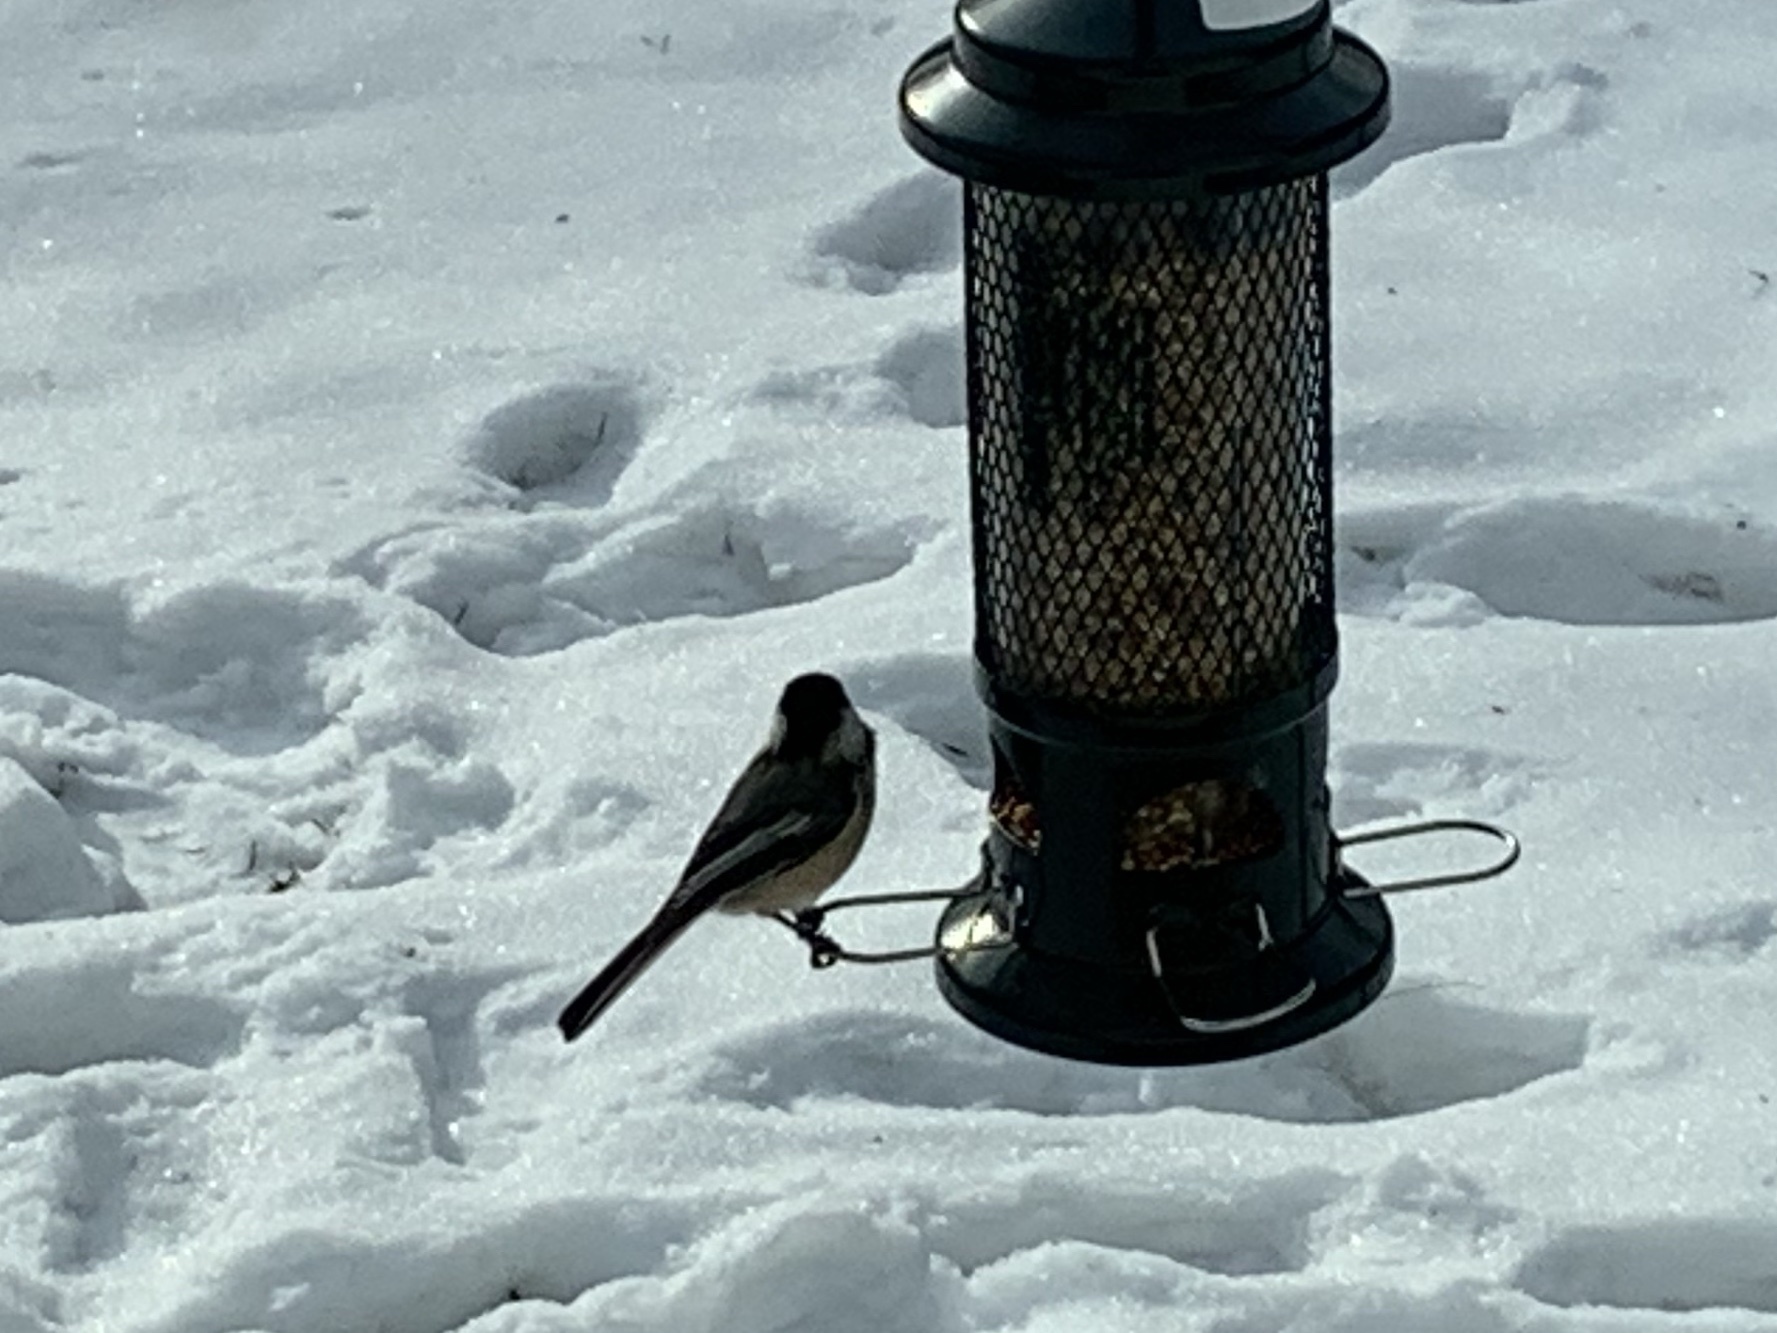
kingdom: Animalia
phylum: Chordata
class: Aves
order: Passeriformes
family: Paridae
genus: Poecile
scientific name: Poecile atricapillus
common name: Black-capped chickadee
